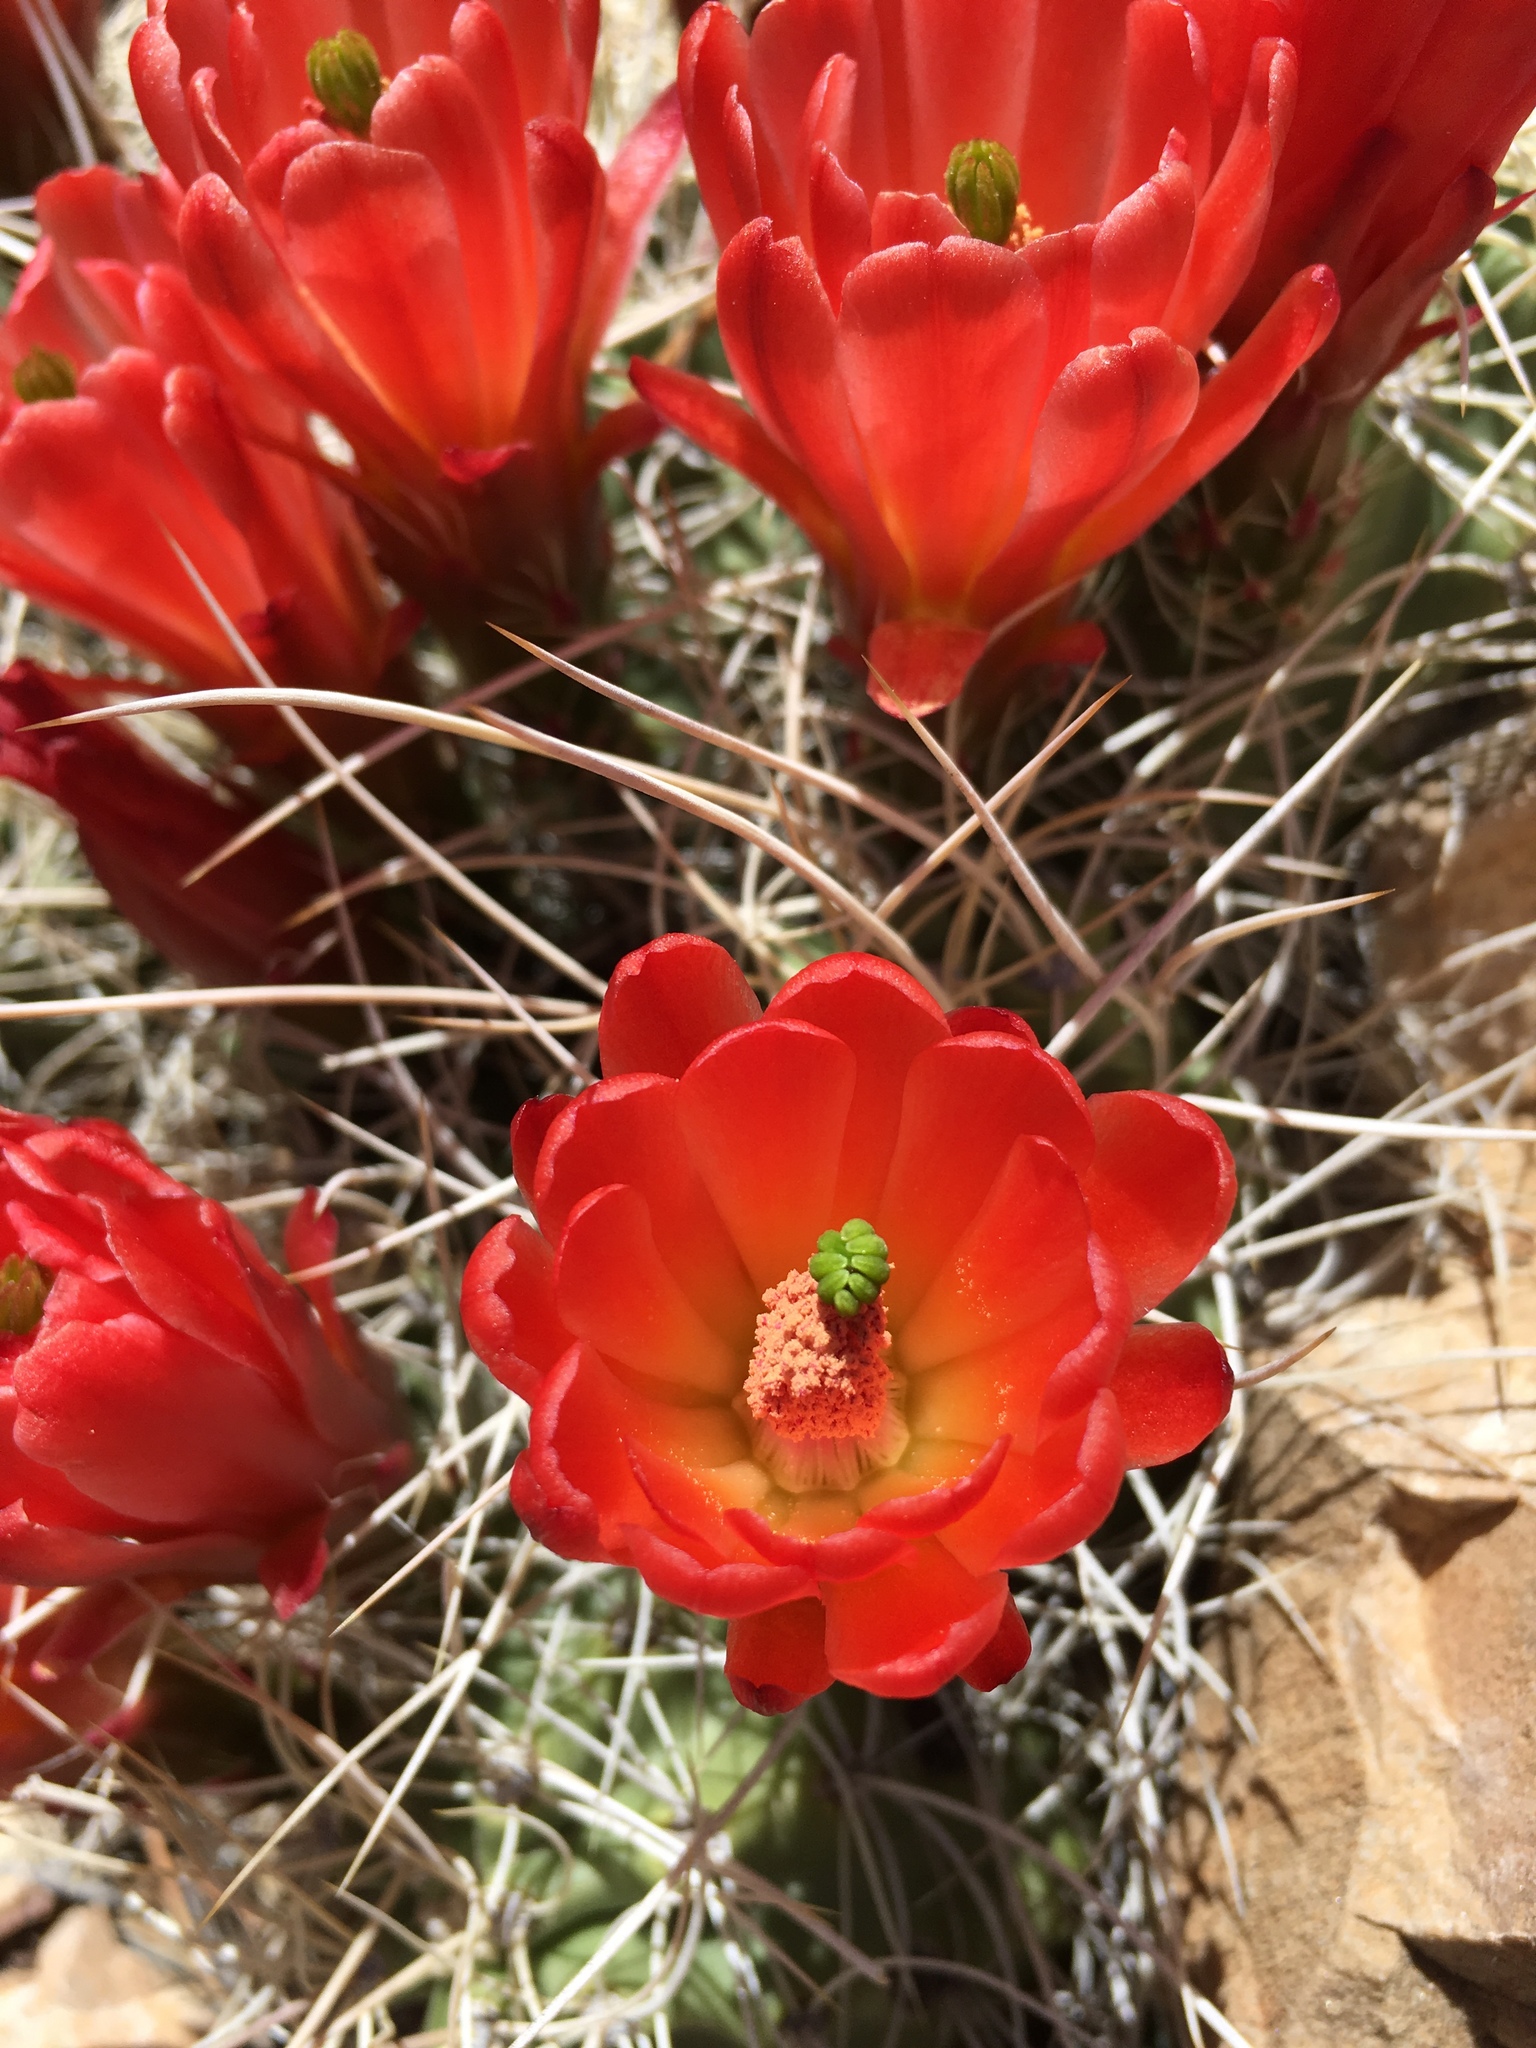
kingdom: Plantae
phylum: Tracheophyta
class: Magnoliopsida
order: Caryophyllales
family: Cactaceae
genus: Echinocereus
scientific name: Echinocereus triglochidiatus
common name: Claretcup hedgehog
